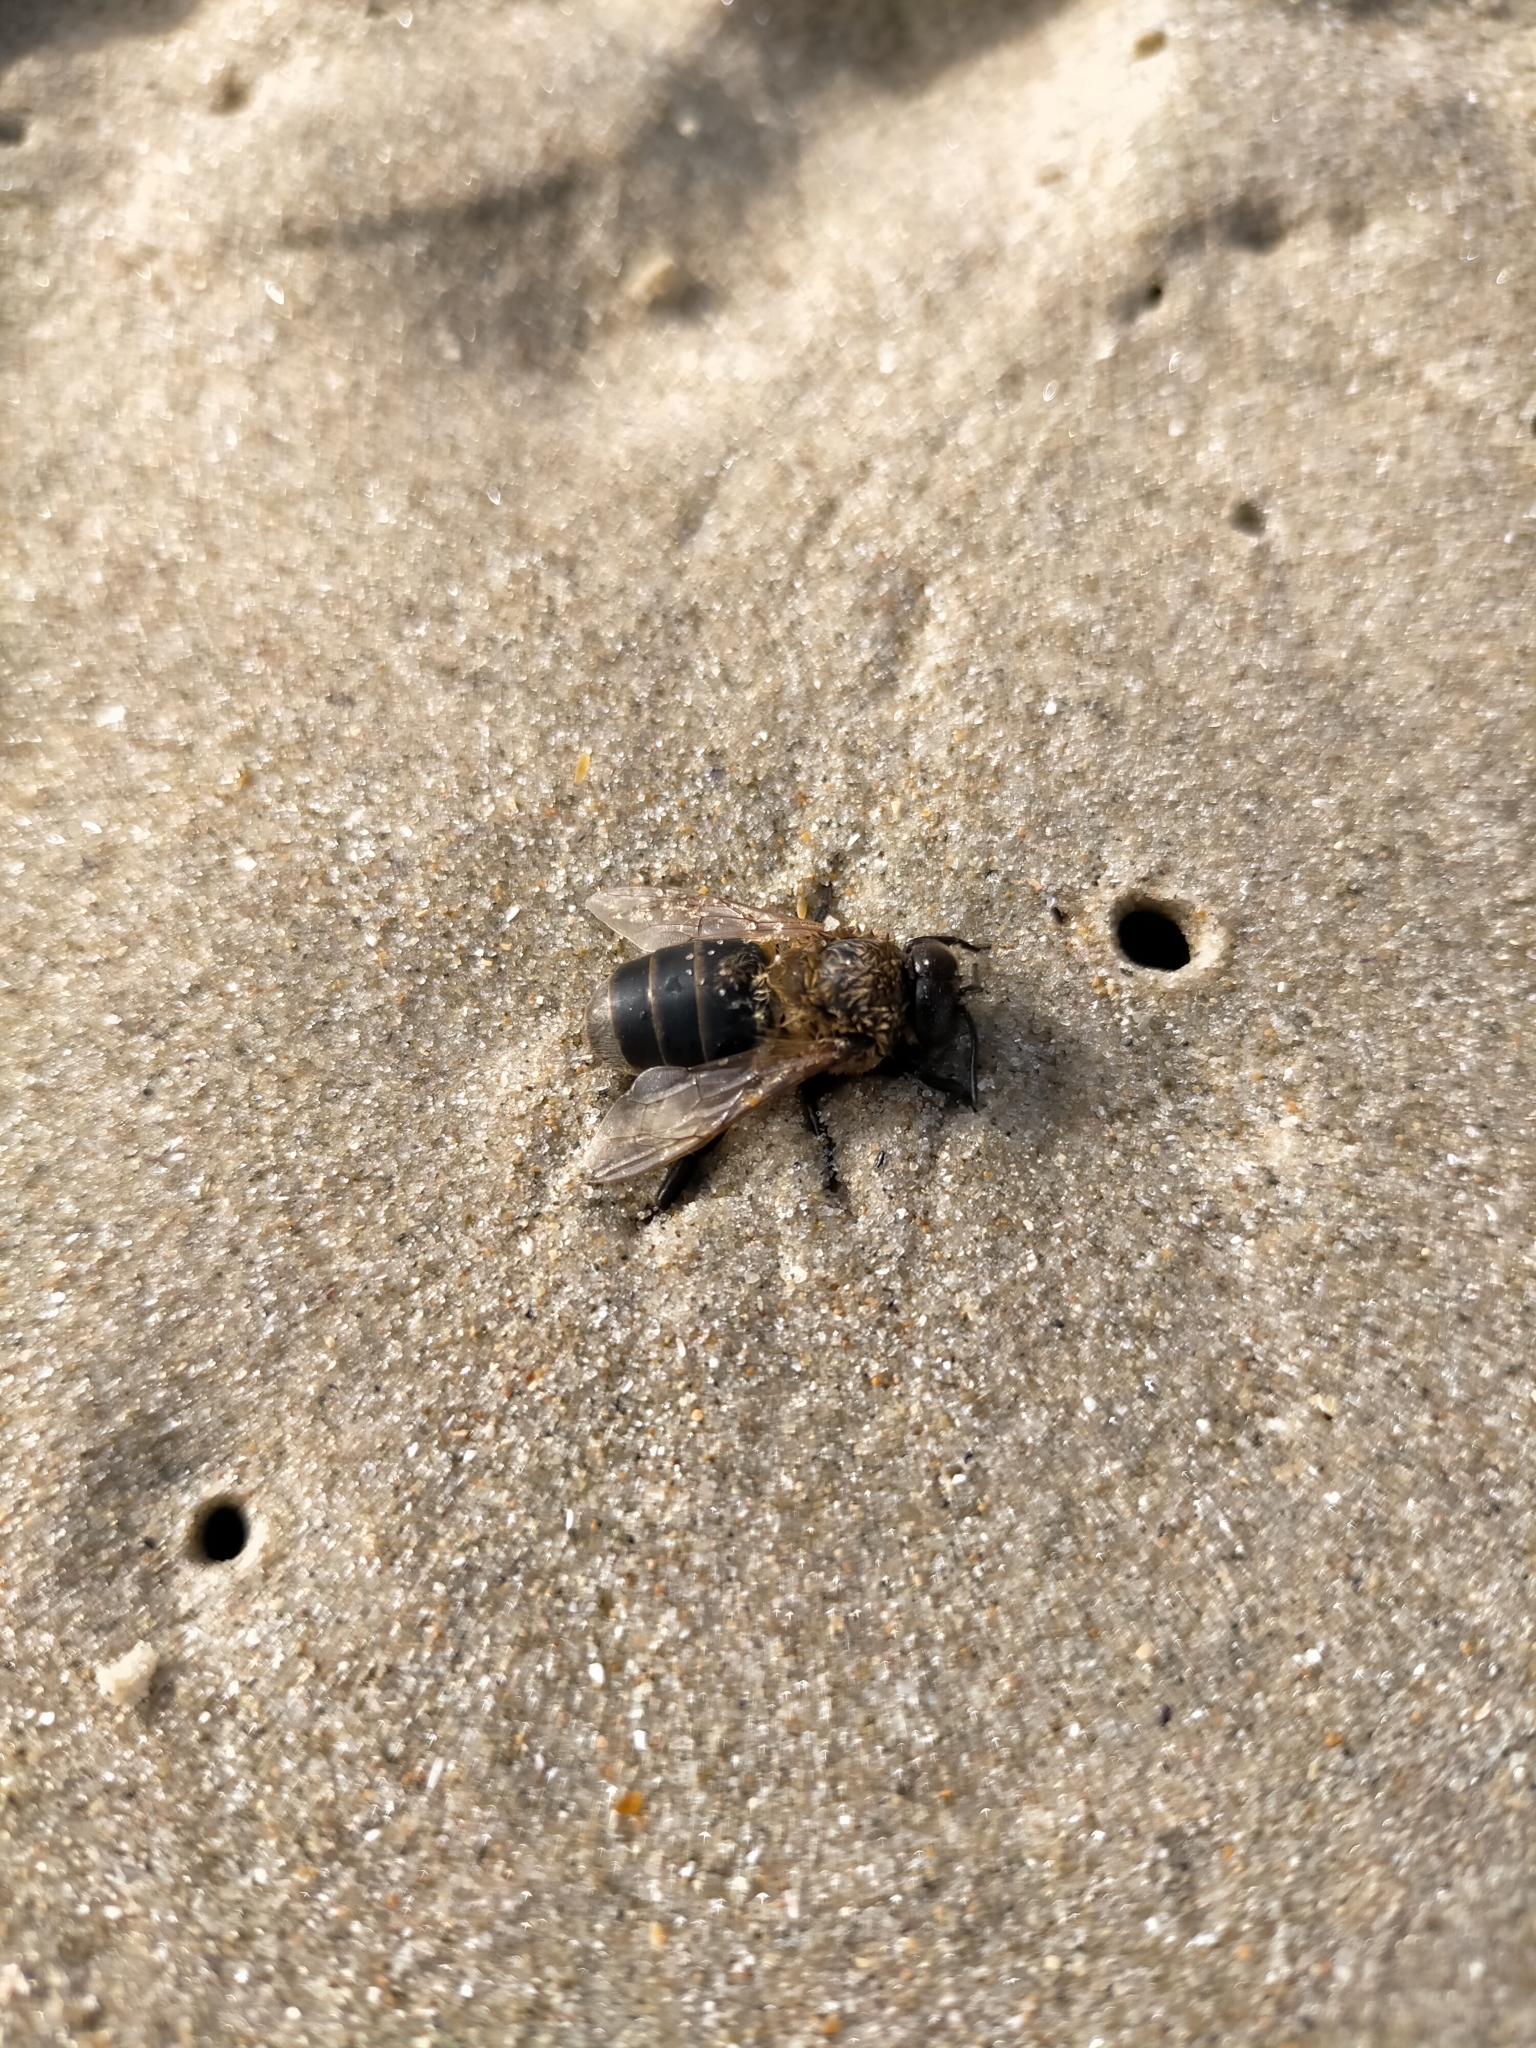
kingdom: Animalia
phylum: Arthropoda
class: Insecta
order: Hymenoptera
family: Apidae
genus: Apis
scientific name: Apis mellifera
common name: Honey bee
